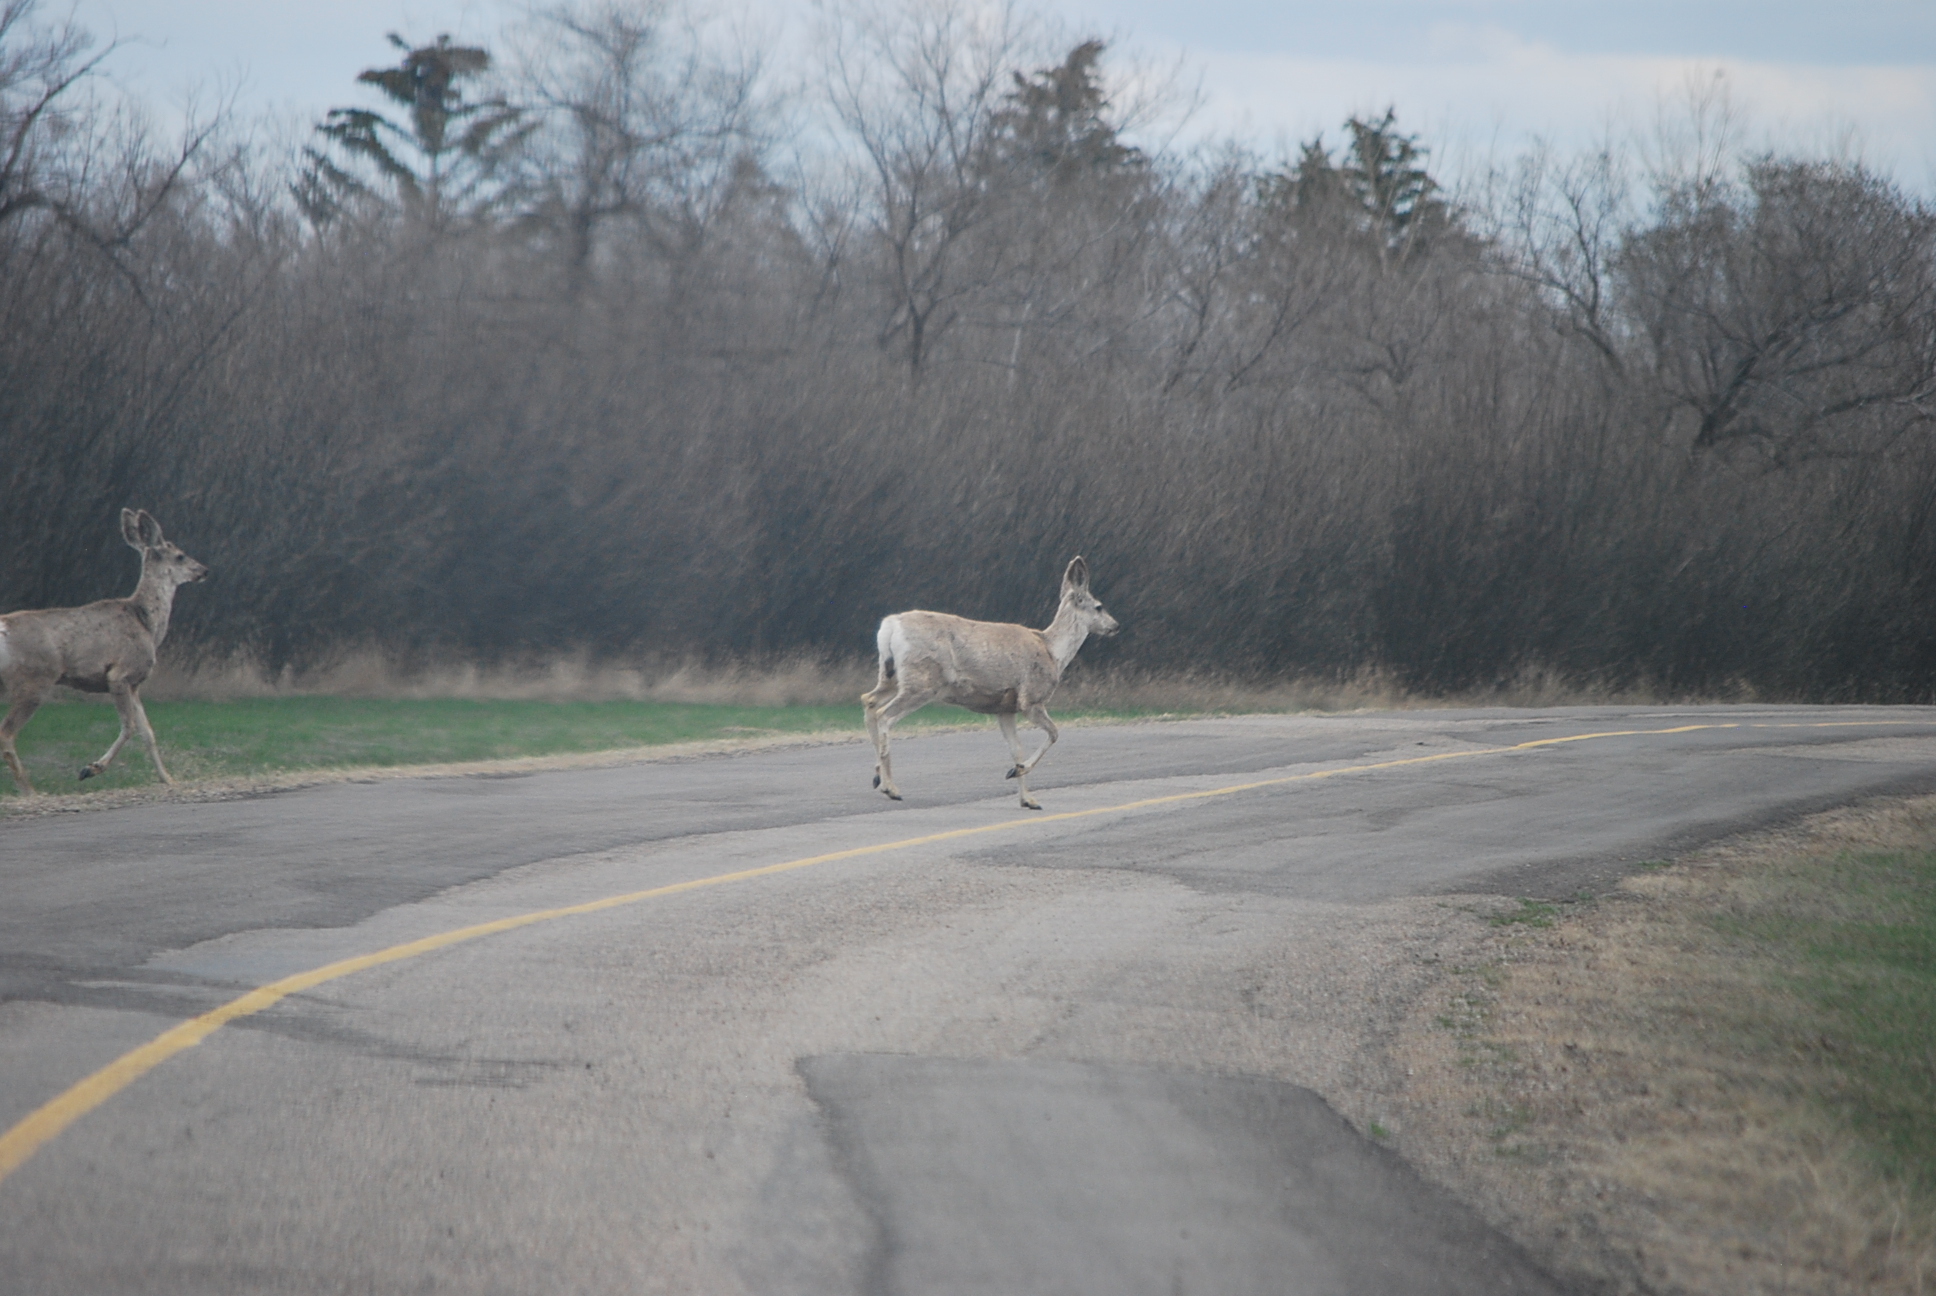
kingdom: Animalia
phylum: Chordata
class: Mammalia
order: Artiodactyla
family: Cervidae
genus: Odocoileus
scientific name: Odocoileus hemionus
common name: Mule deer
